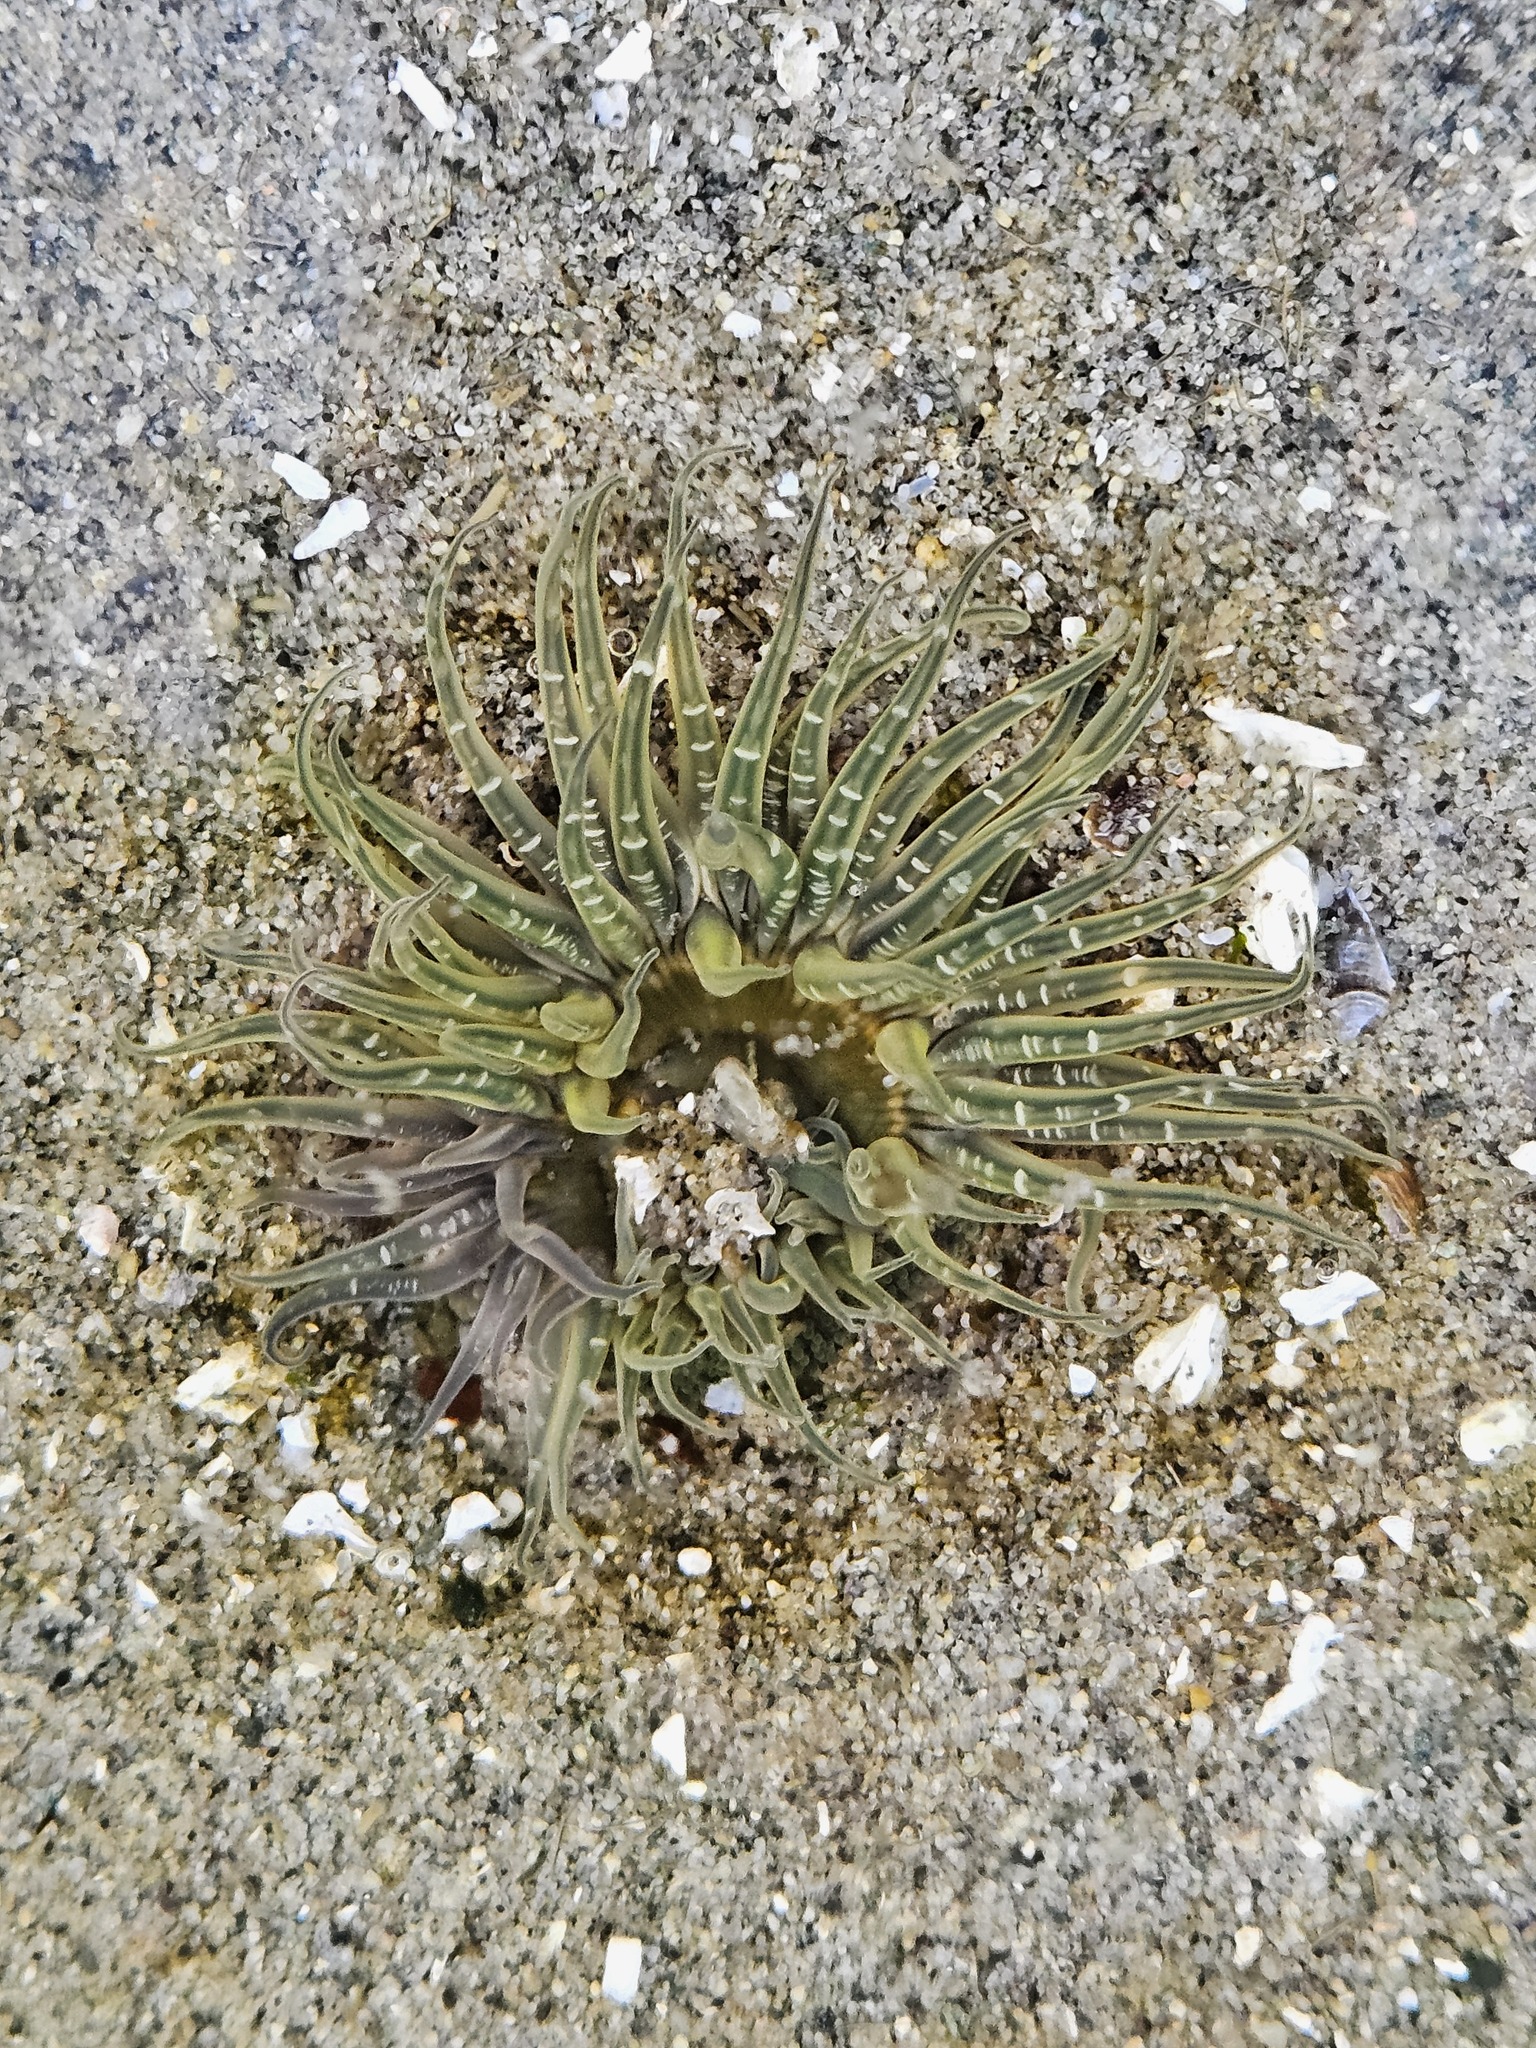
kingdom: Animalia
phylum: Cnidaria
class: Anthozoa
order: Actiniaria
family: Actiniidae
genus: Anthopleura
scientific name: Anthopleura artemisia
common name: Buried sea anemone
